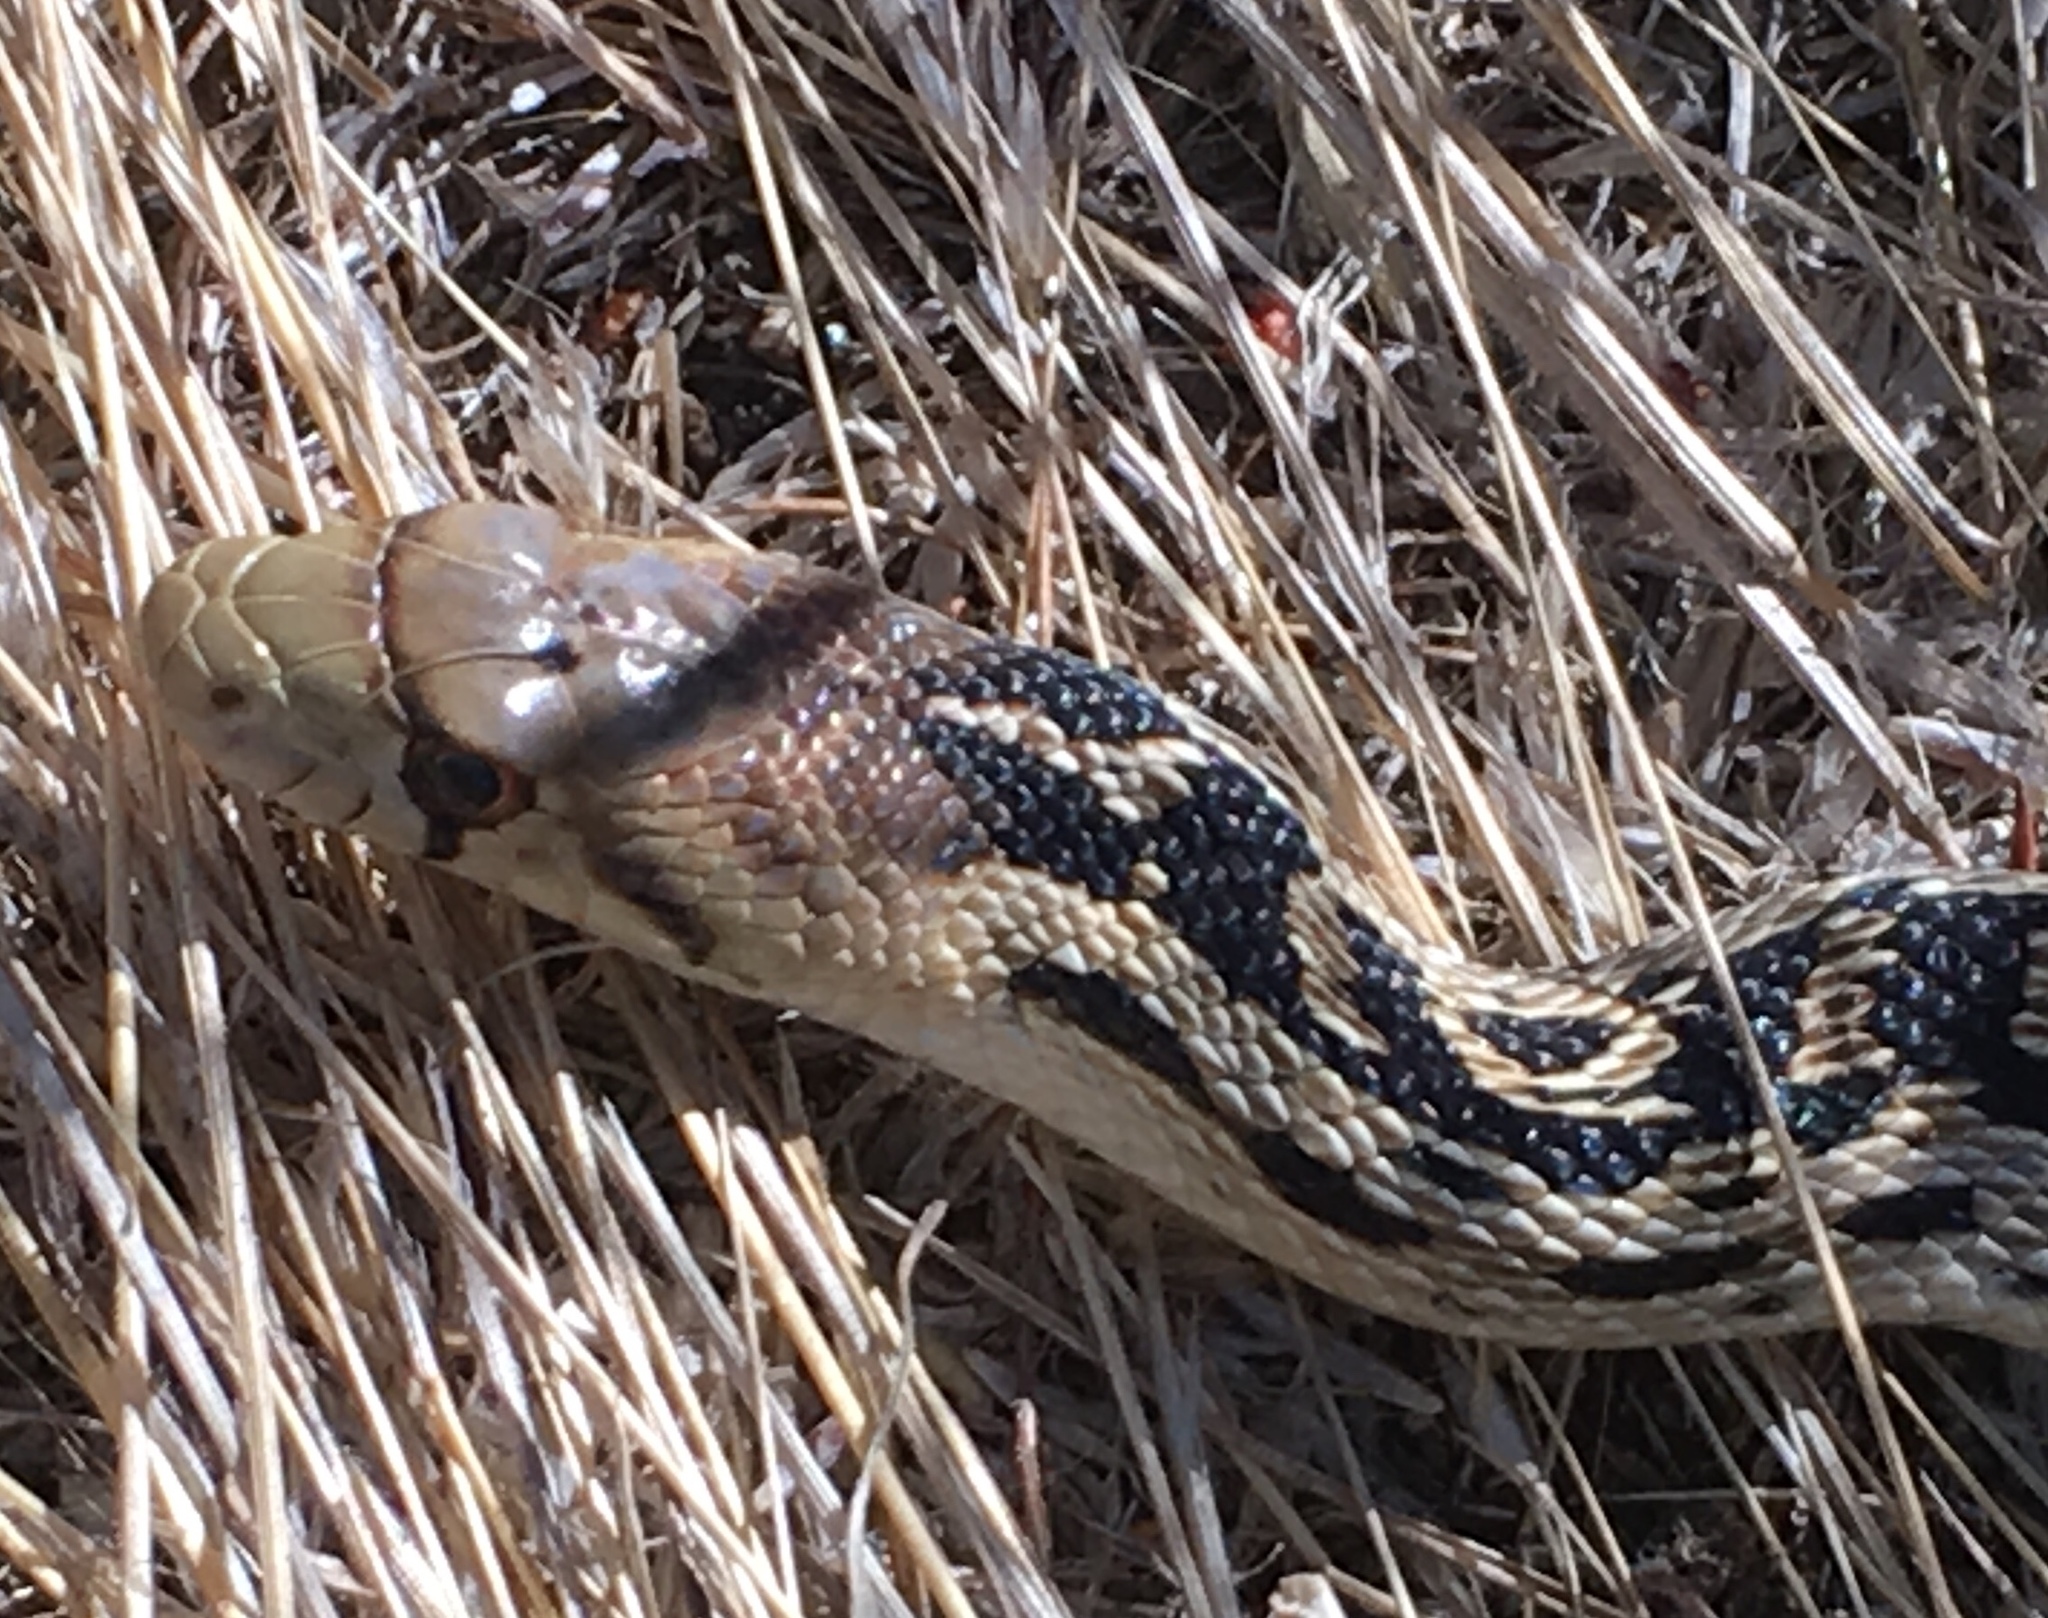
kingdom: Animalia
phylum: Chordata
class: Squamata
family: Colubridae
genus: Pituophis
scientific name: Pituophis catenifer
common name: Gopher snake
